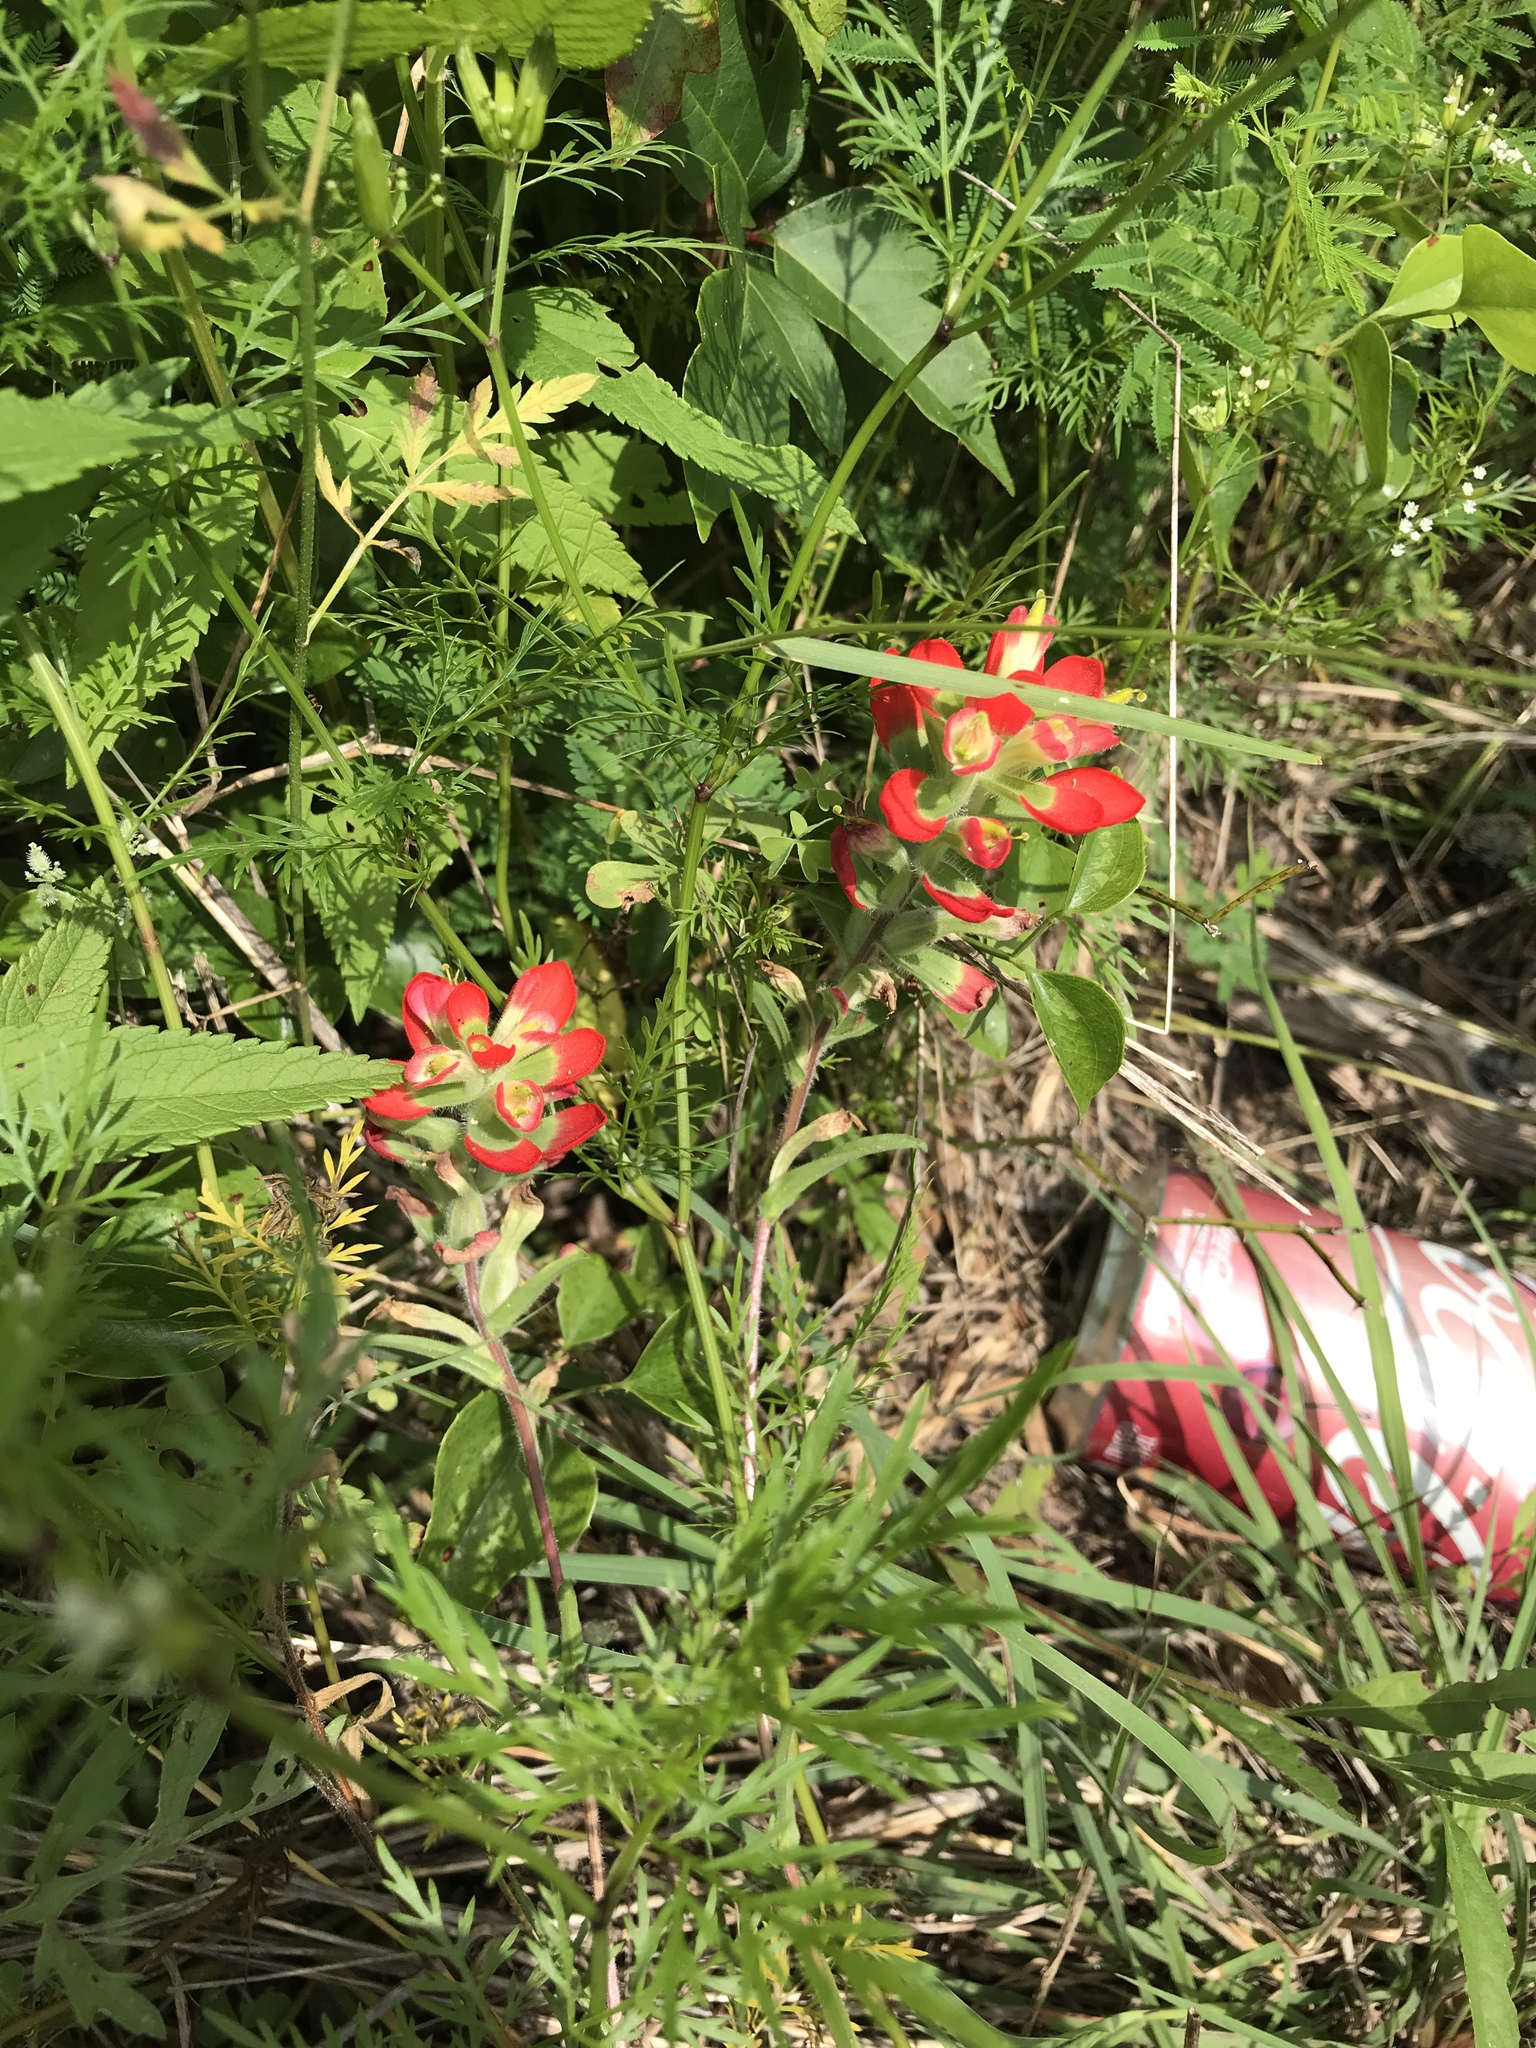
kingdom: Plantae
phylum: Tracheophyta
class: Magnoliopsida
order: Lamiales
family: Orobanchaceae
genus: Castilleja
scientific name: Castilleja indivisa
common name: Texas paintbrush
